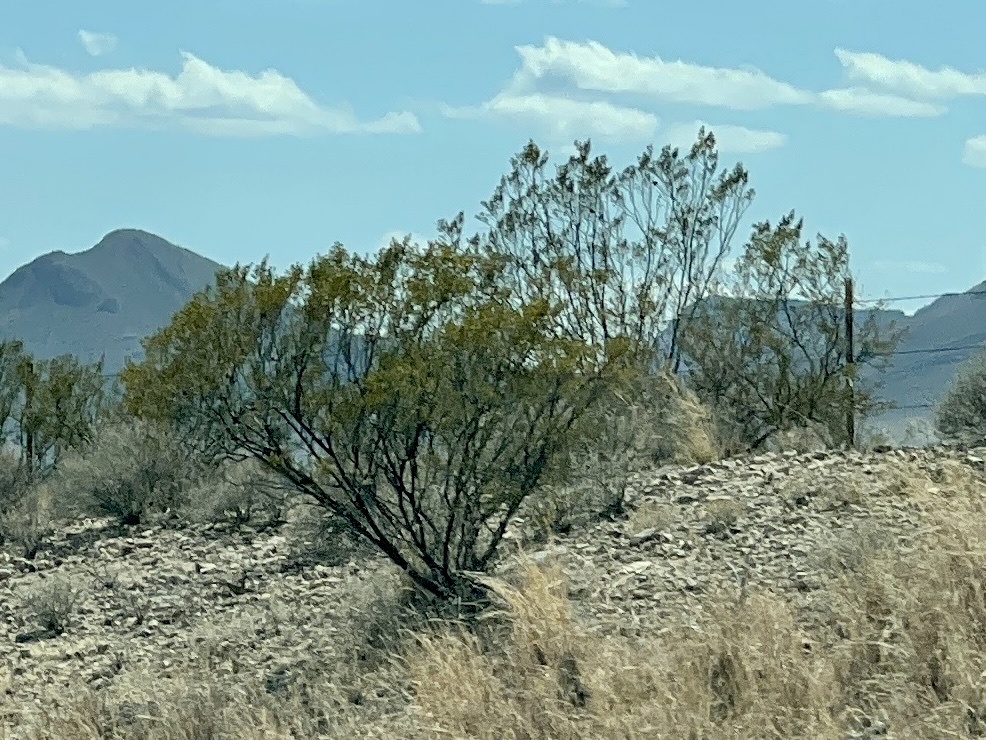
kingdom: Plantae
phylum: Tracheophyta
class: Magnoliopsida
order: Zygophyllales
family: Zygophyllaceae
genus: Larrea
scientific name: Larrea tridentata
